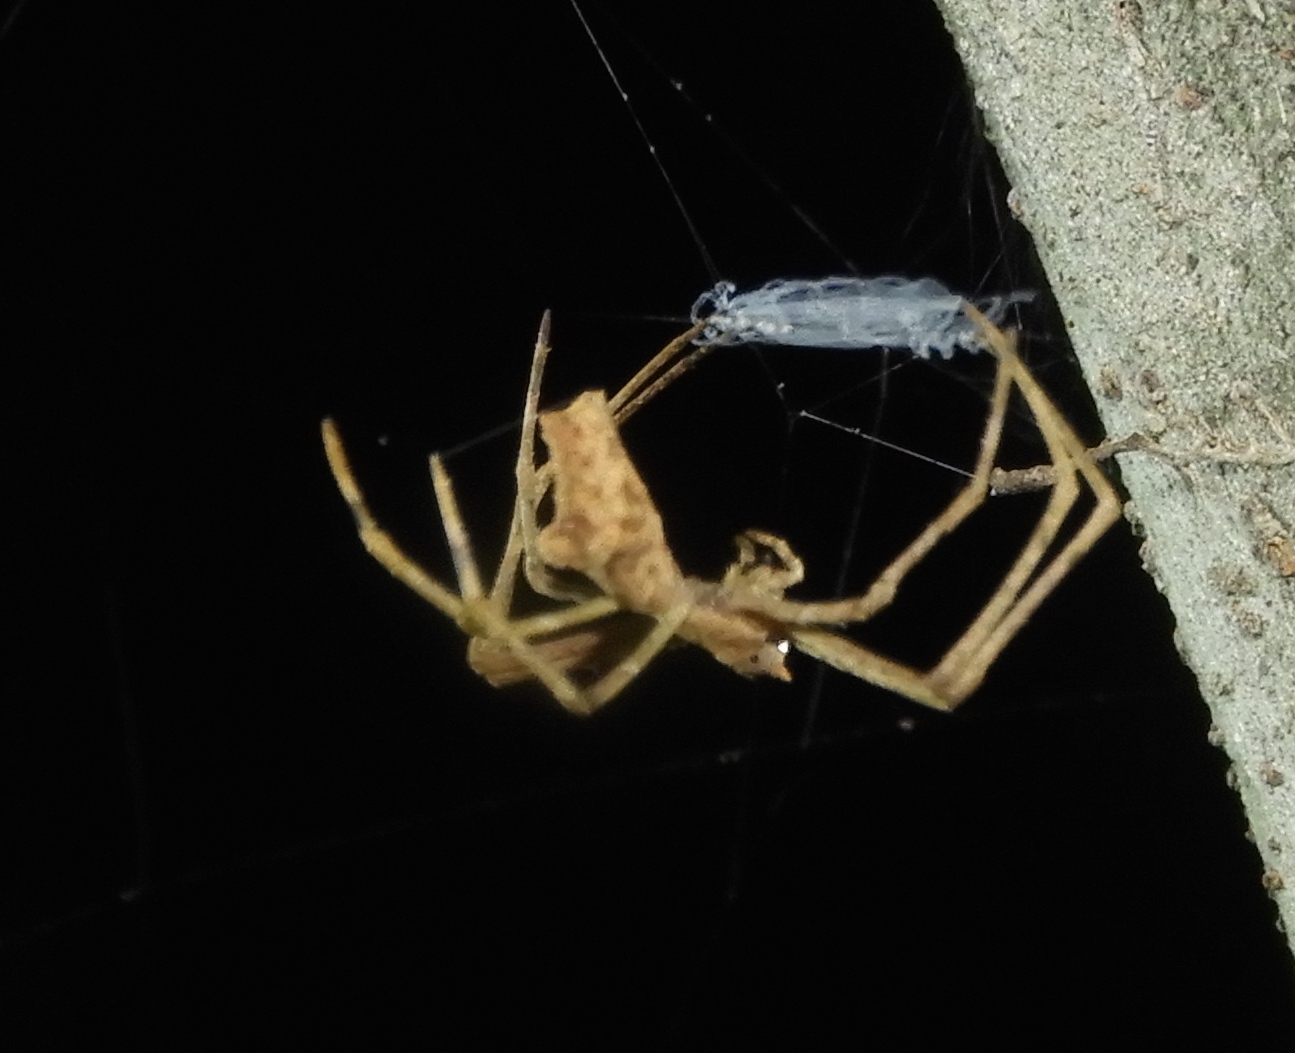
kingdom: Animalia
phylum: Arthropoda
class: Arachnida
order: Araneae
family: Deinopidae
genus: Deinopis
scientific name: Deinopis aurita
